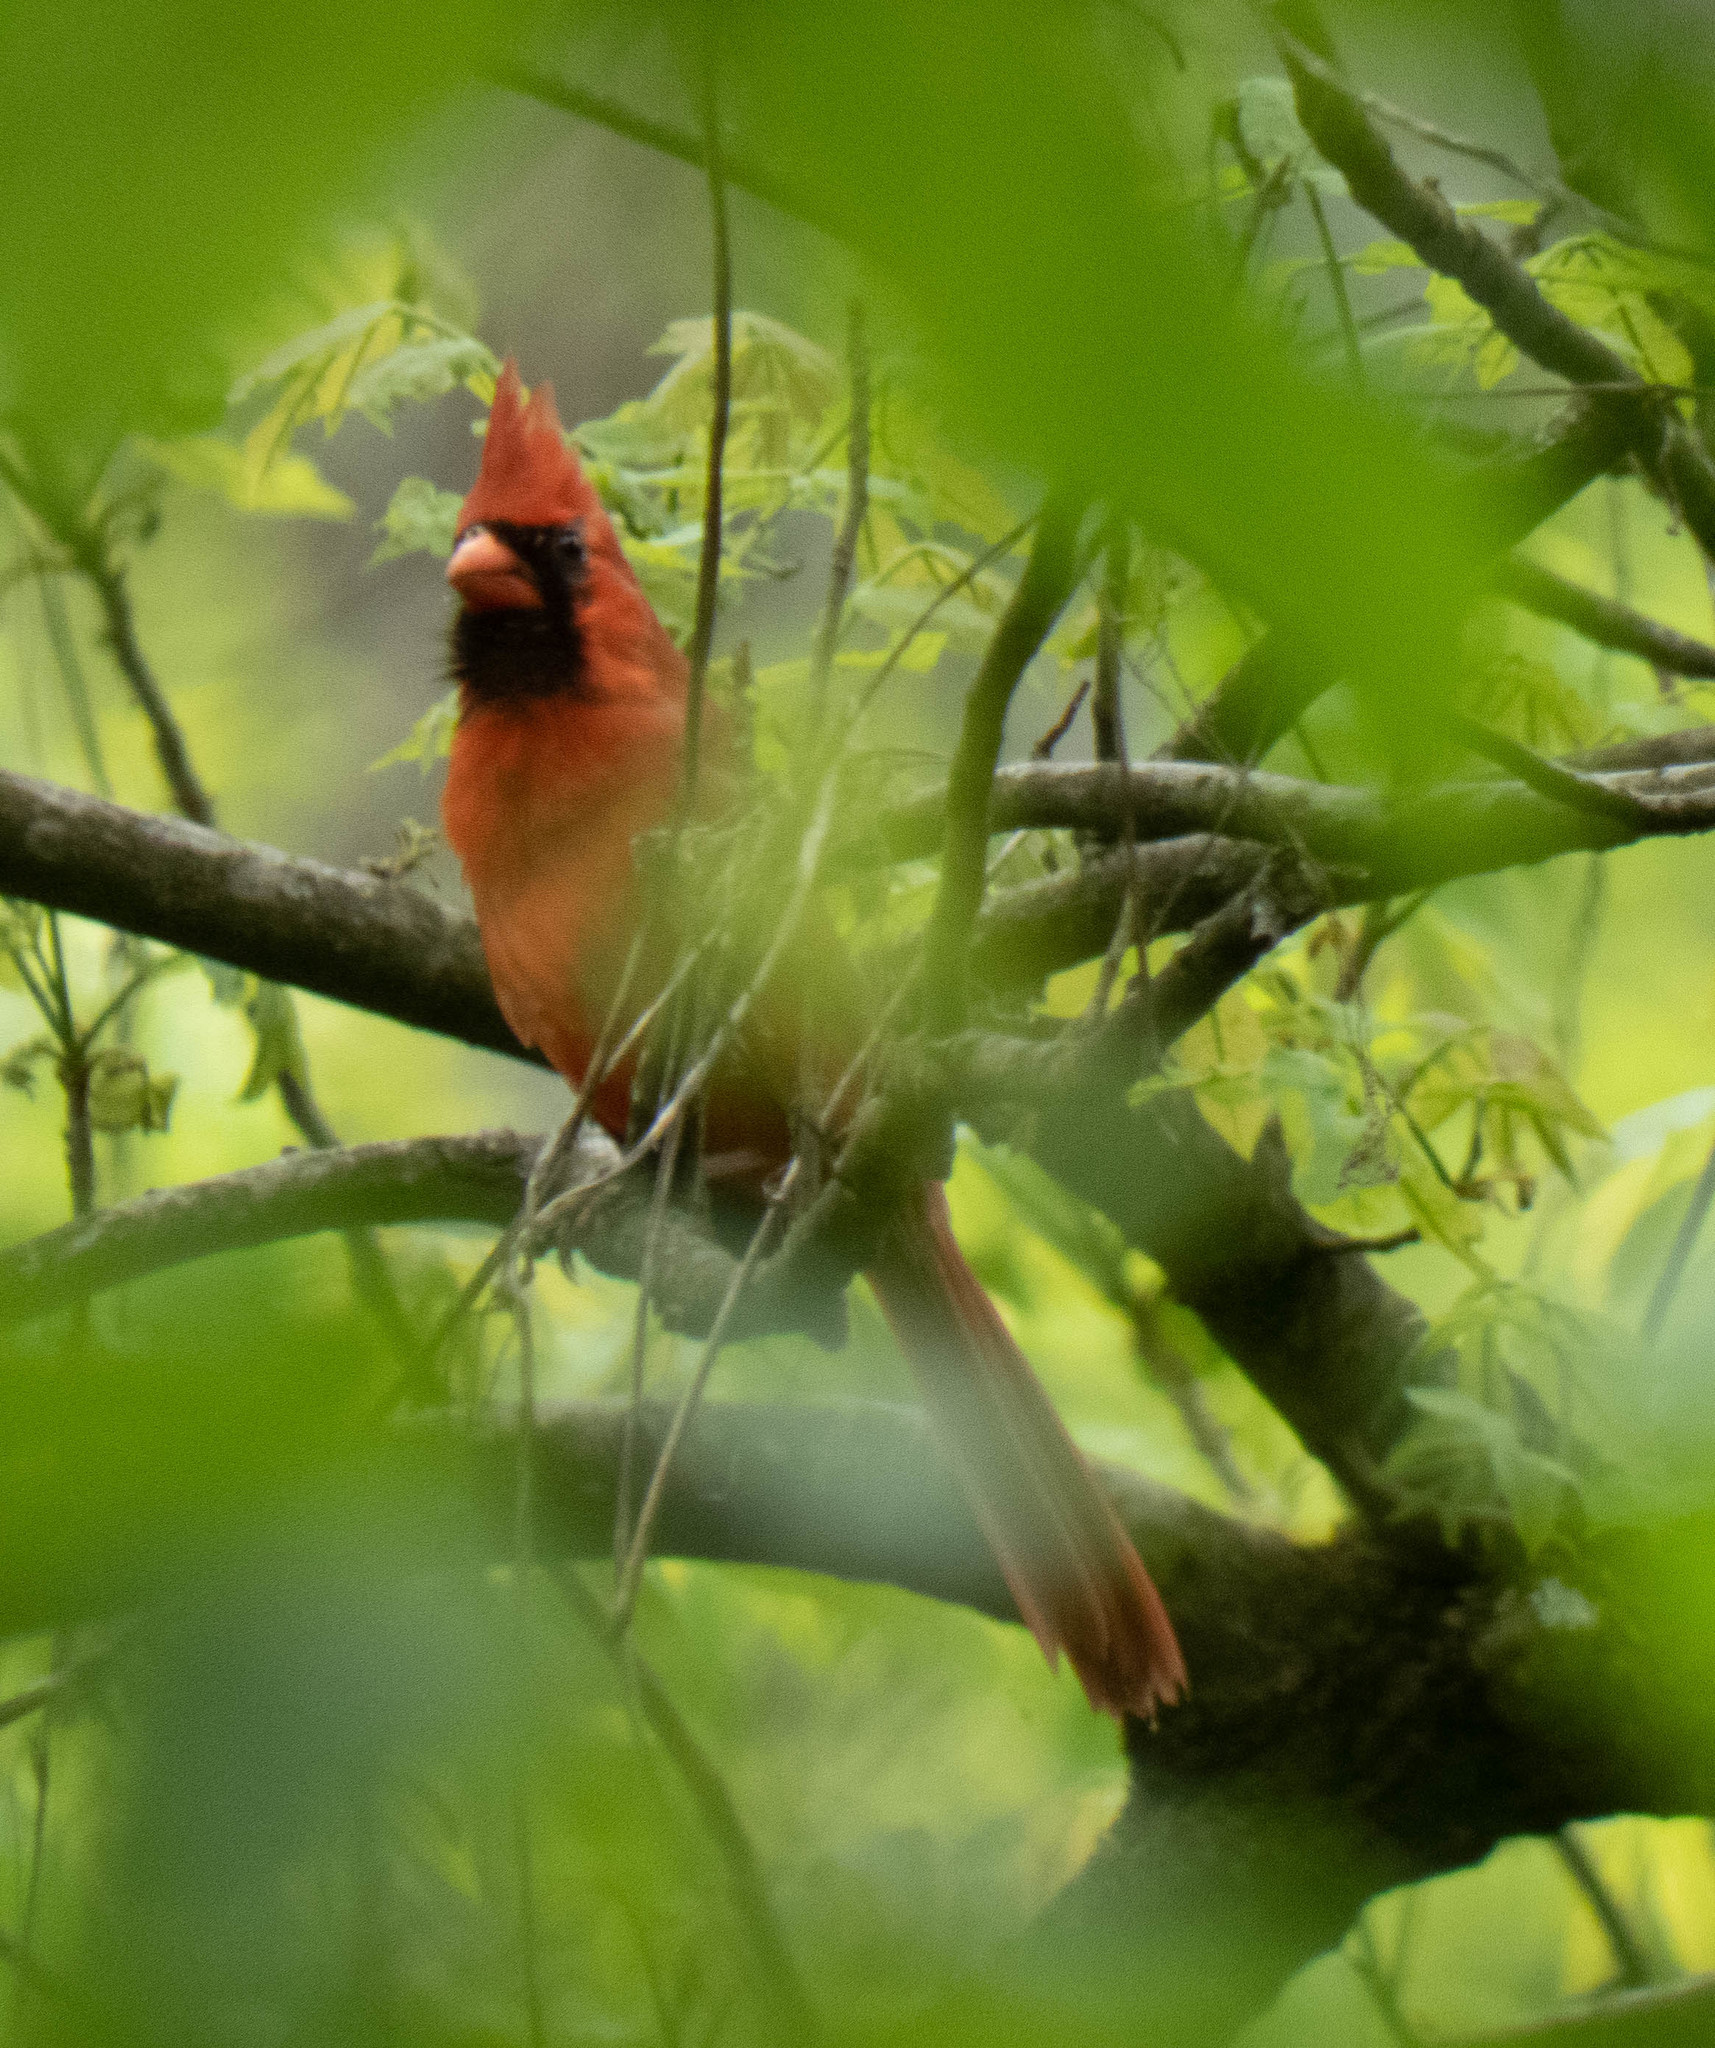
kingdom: Animalia
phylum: Chordata
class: Aves
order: Passeriformes
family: Cardinalidae
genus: Cardinalis
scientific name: Cardinalis cardinalis
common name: Northern cardinal
